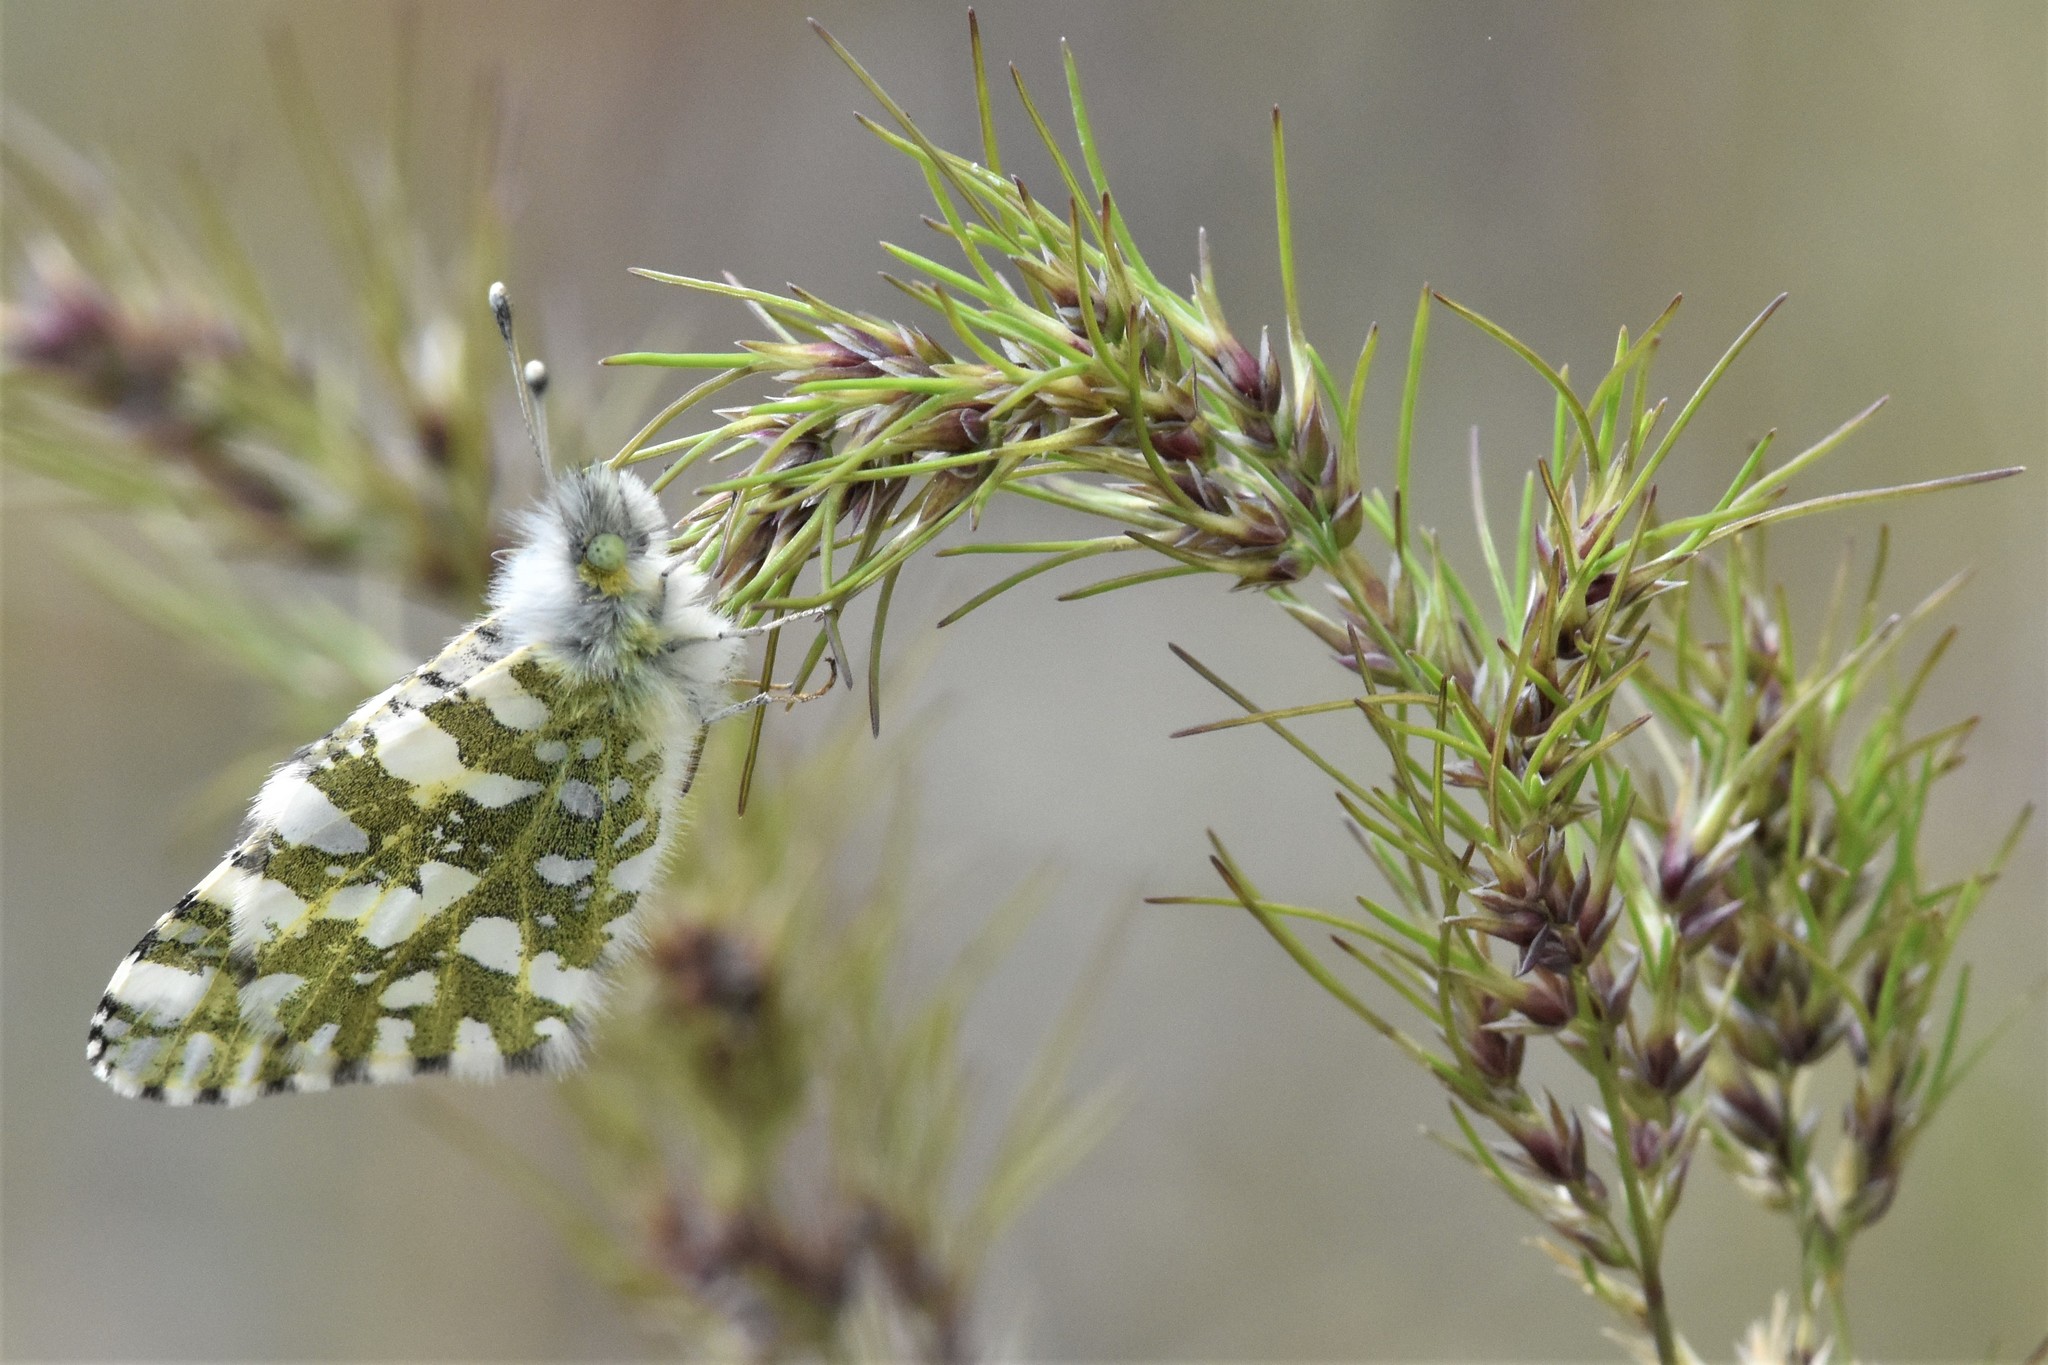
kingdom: Animalia
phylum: Arthropoda
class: Insecta
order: Lepidoptera
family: Pieridae
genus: Euchloe
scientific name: Euchloe ausonides
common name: Creamy marblewing
